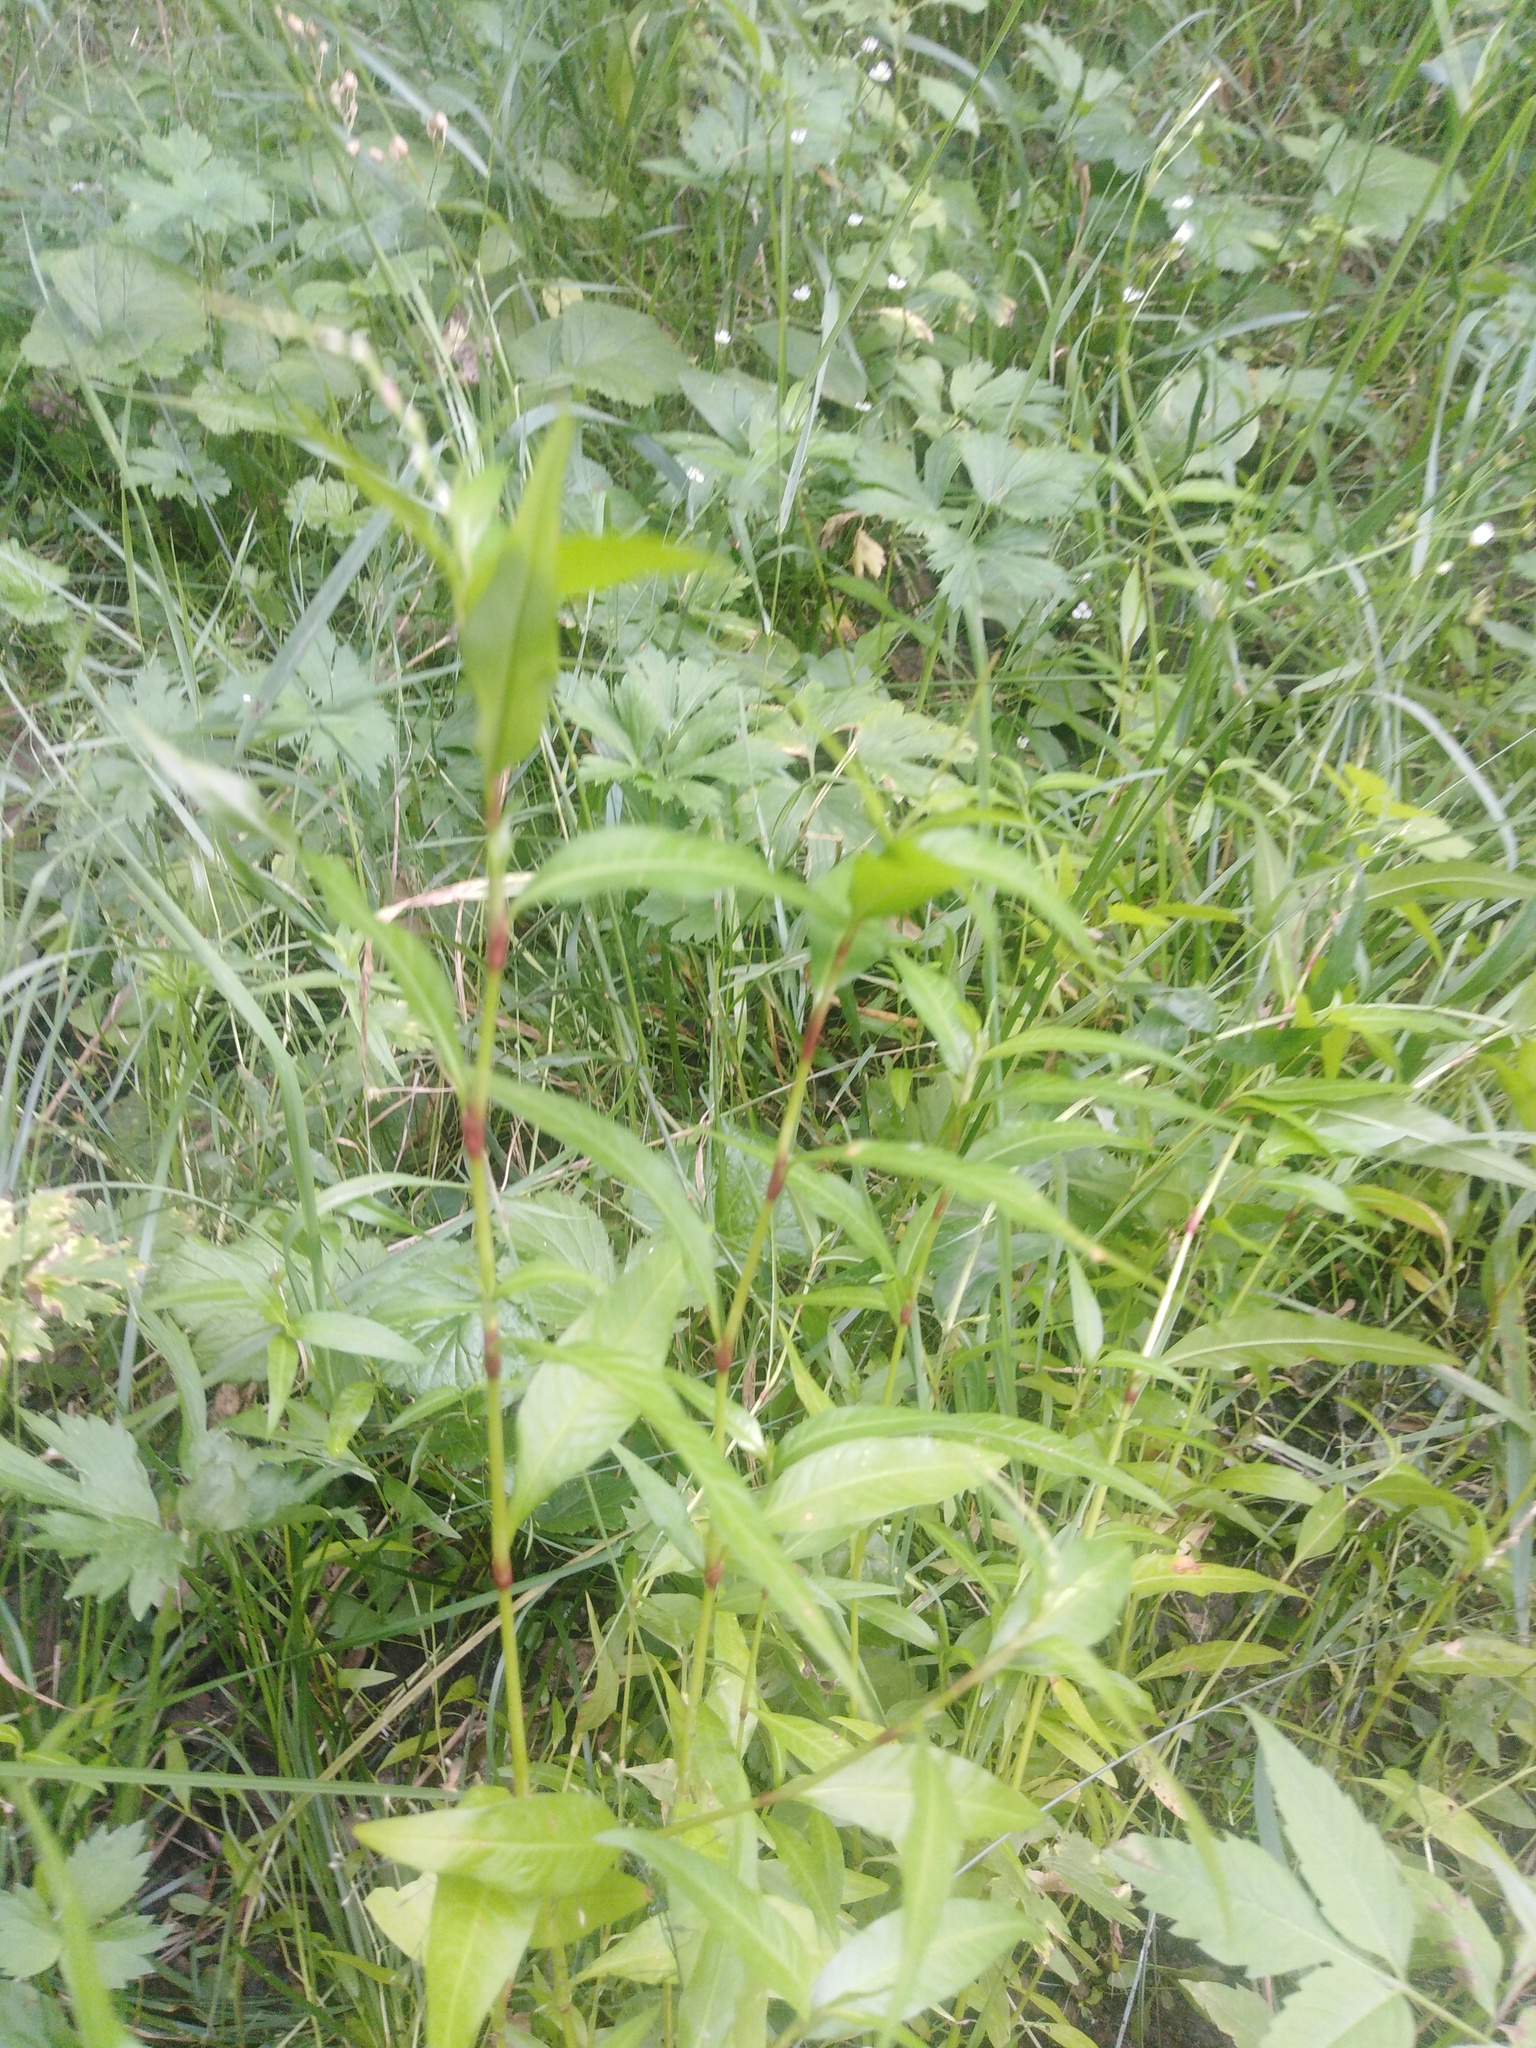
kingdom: Plantae
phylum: Tracheophyta
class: Magnoliopsida
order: Caryophyllales
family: Polygonaceae
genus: Persicaria
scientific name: Persicaria hydropiper
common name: Water-pepper
